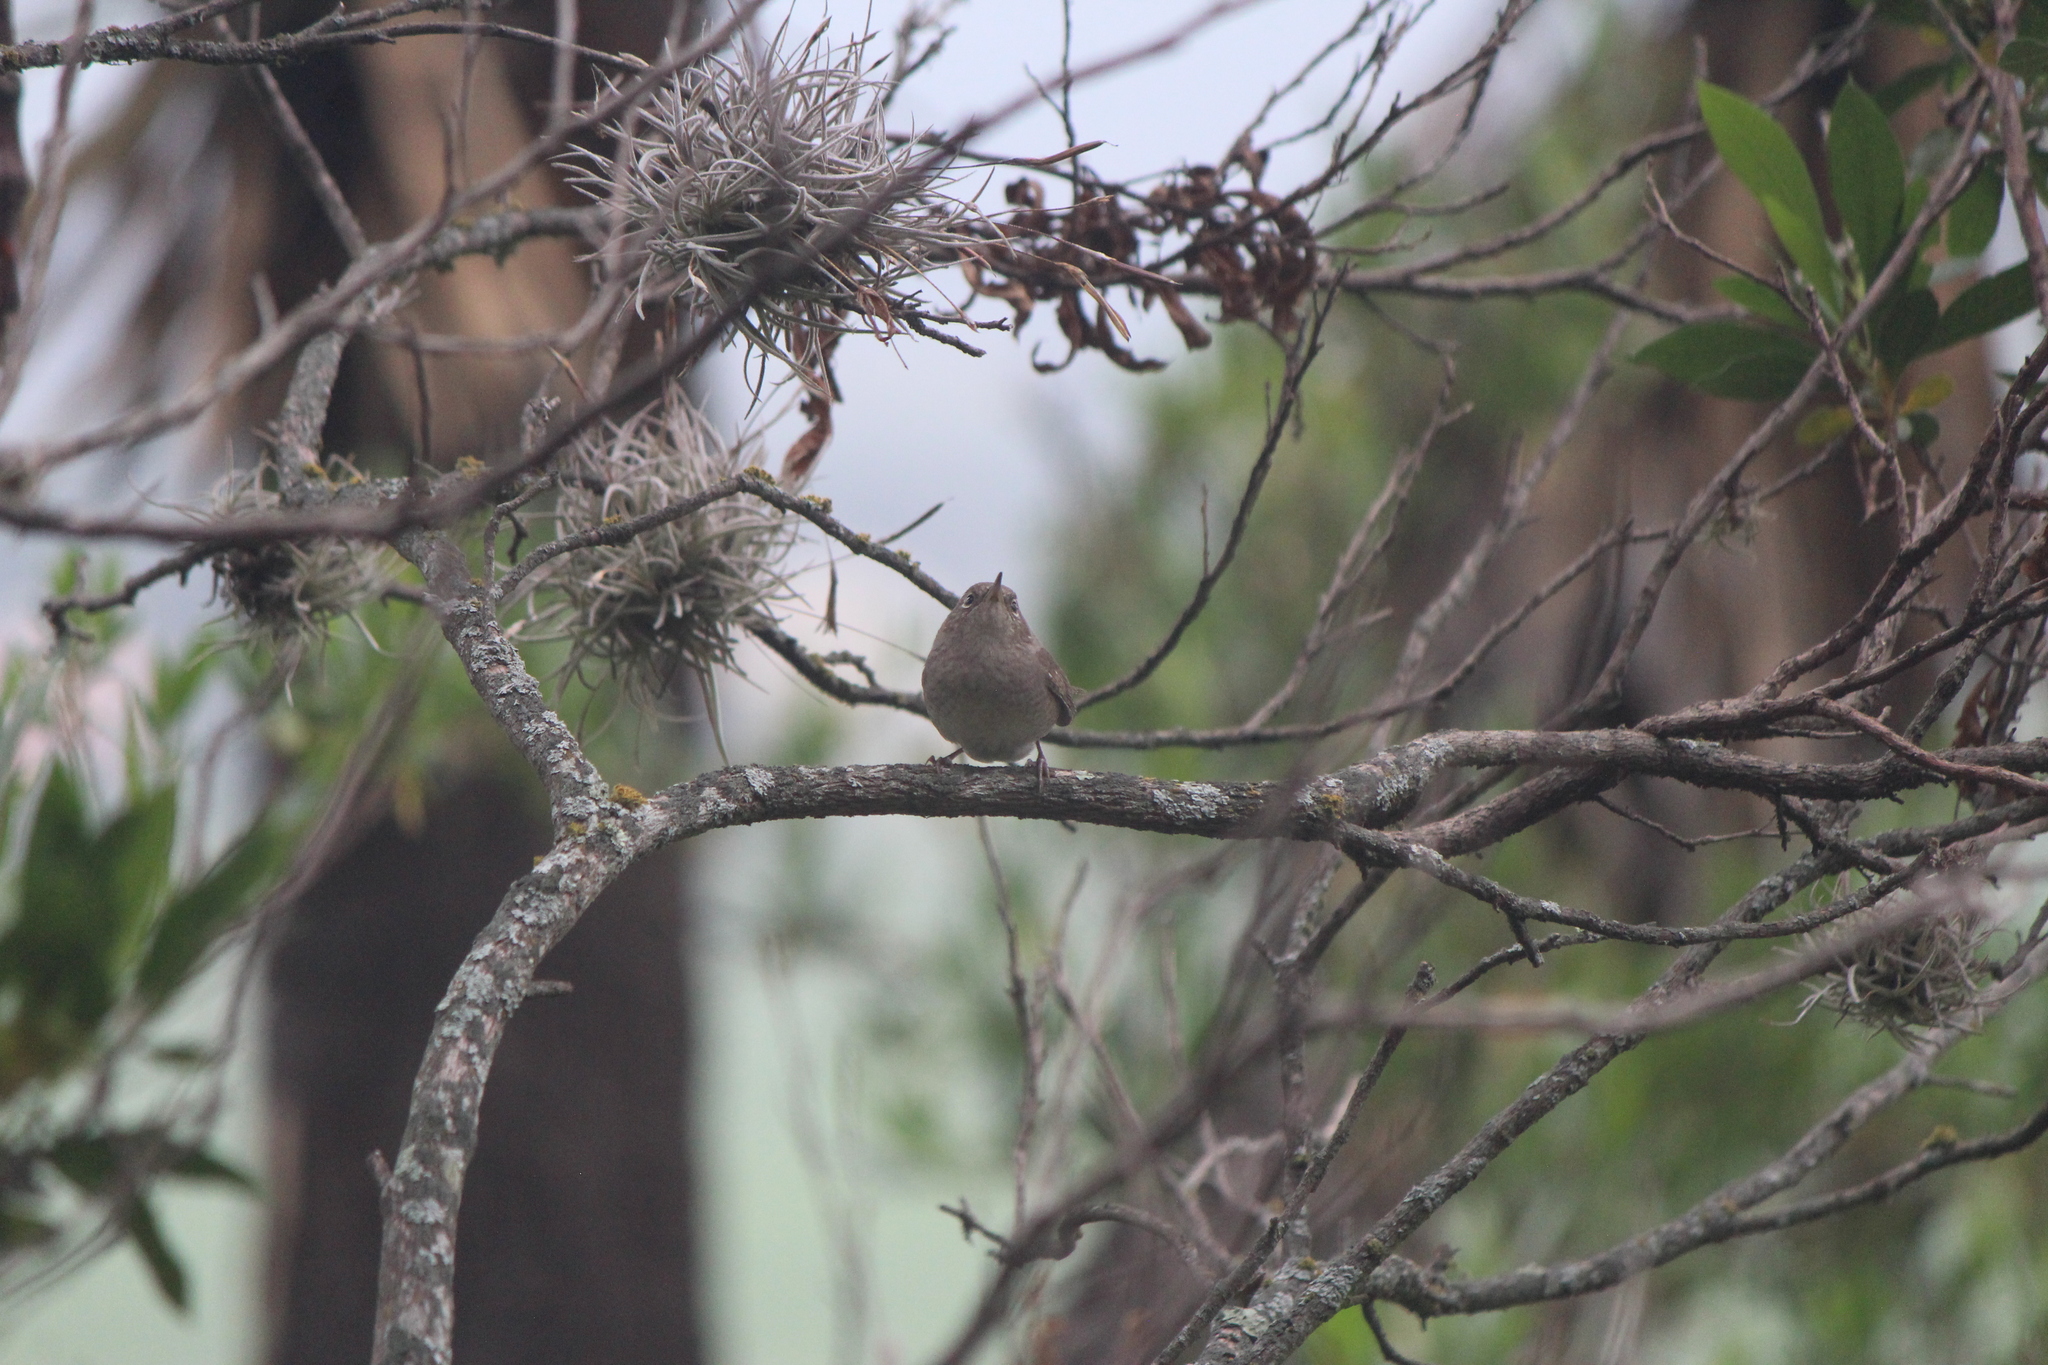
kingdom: Animalia
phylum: Chordata
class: Aves
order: Passeriformes
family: Troglodytidae
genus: Troglodytes
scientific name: Troglodytes aedon
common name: House wren
